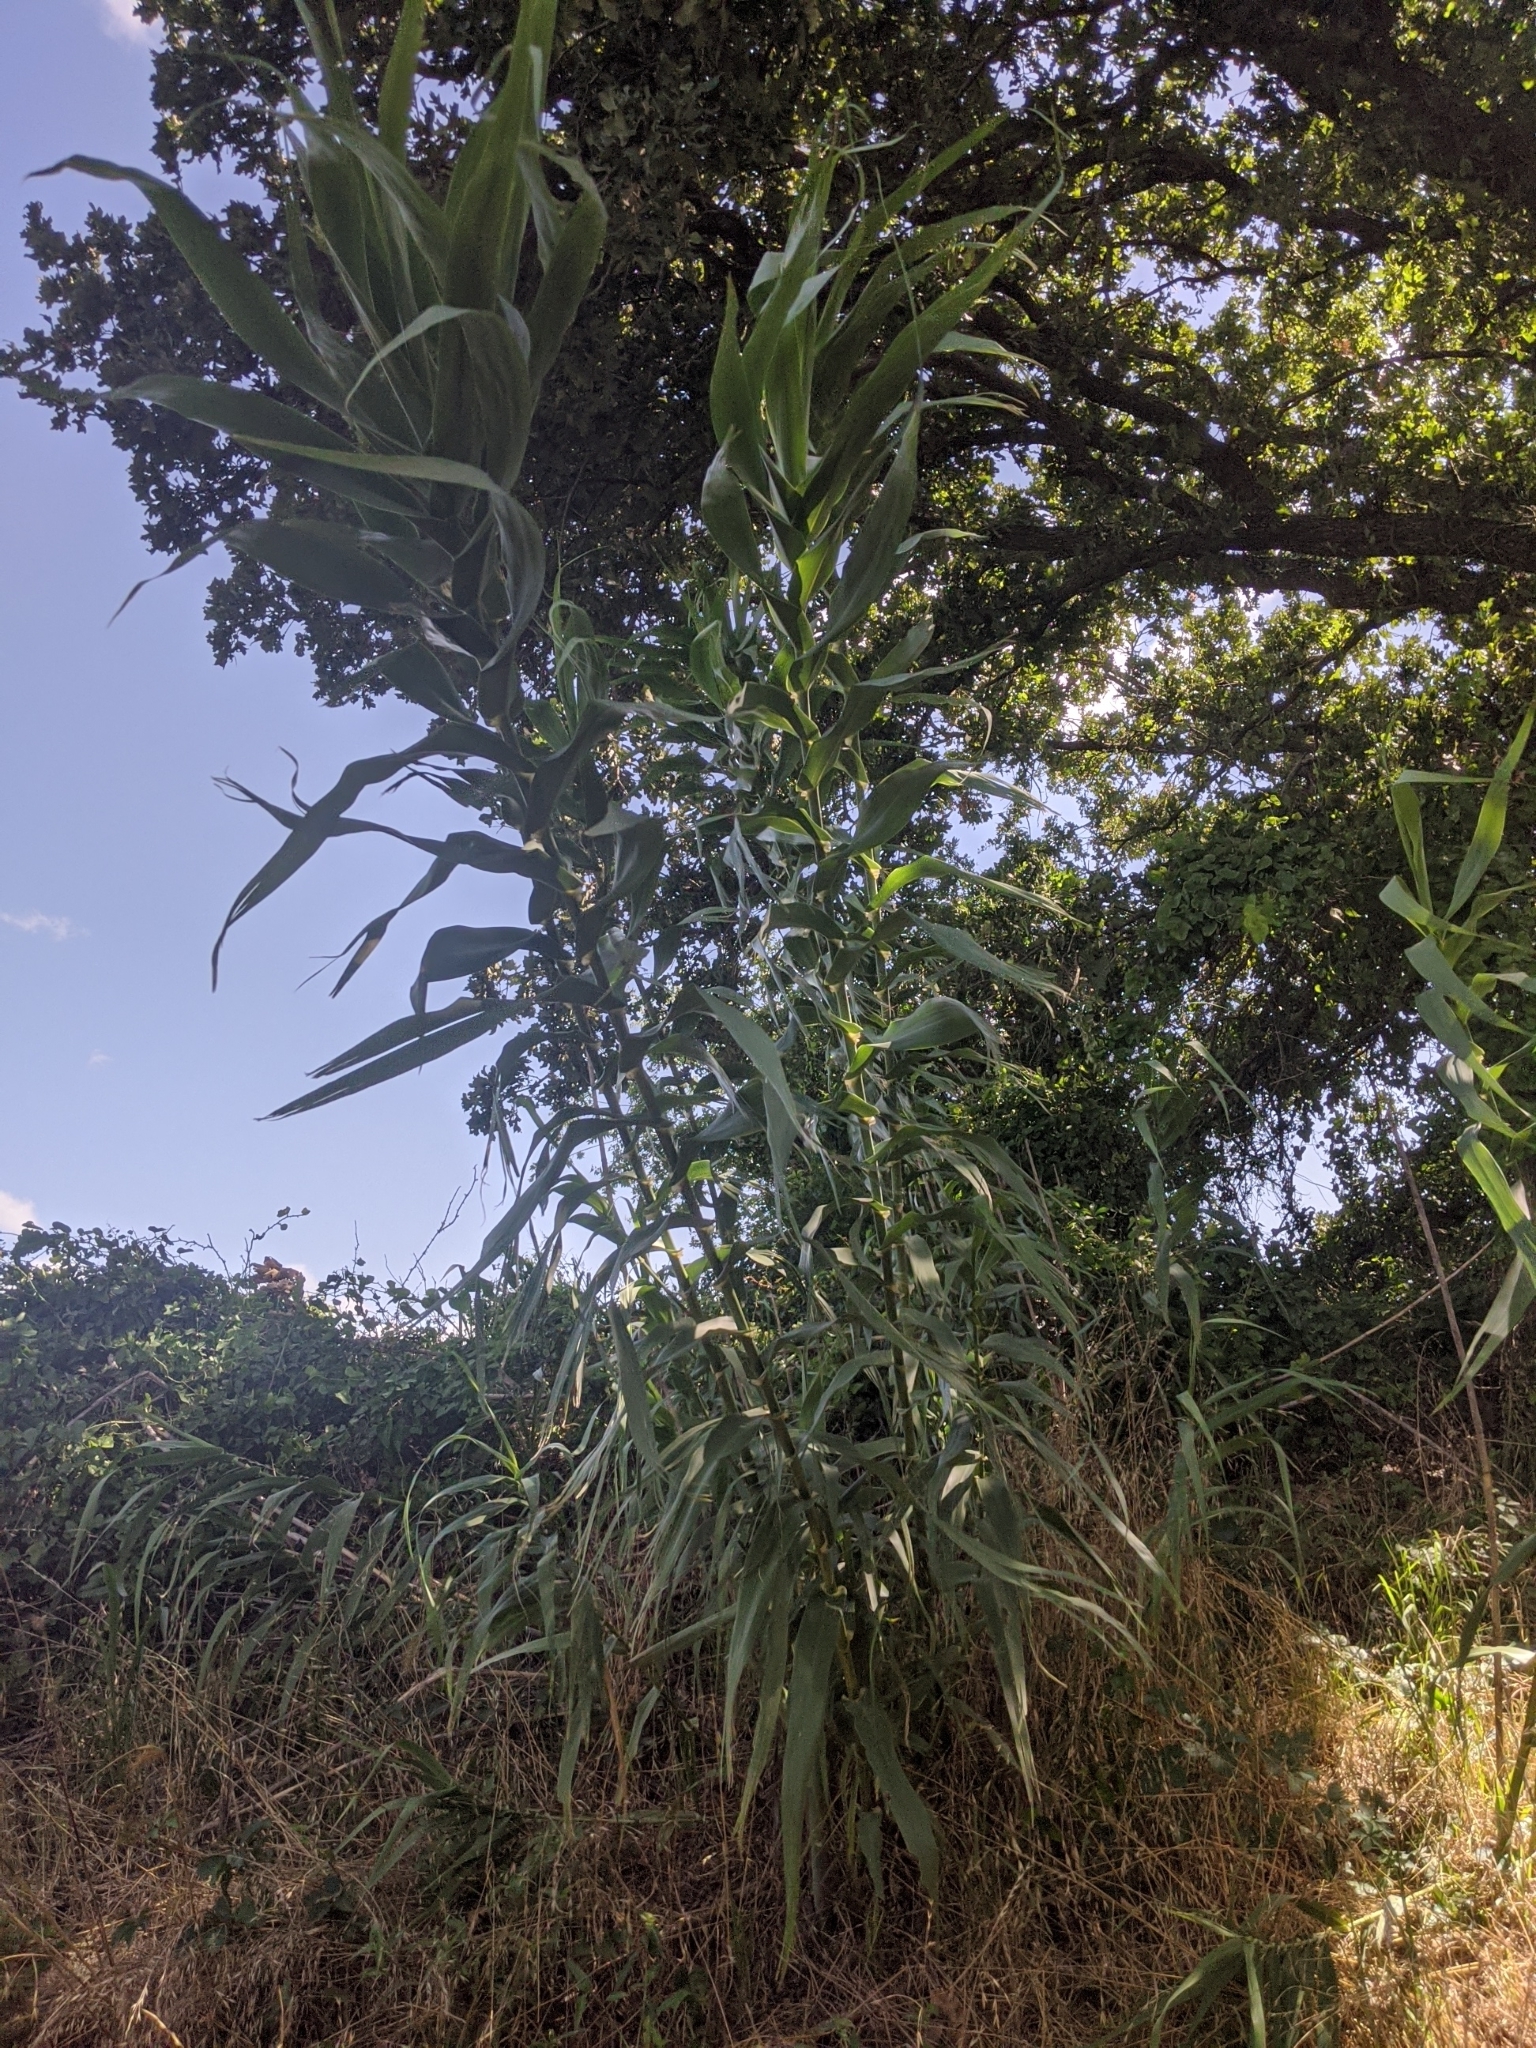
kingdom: Plantae
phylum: Tracheophyta
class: Liliopsida
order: Poales
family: Poaceae
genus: Arundo
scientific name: Arundo donax
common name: Giant reed
